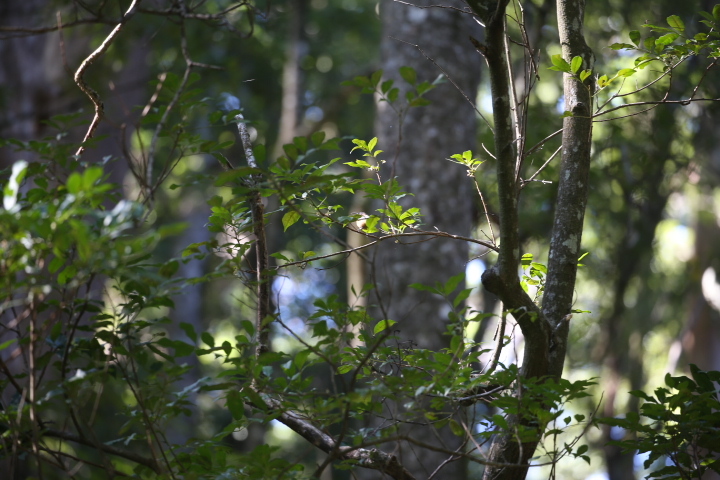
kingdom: Animalia
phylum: Chordata
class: Aves
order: Passeriformes
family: Meliphagidae
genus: Acanthorhynchus
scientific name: Acanthorhynchus tenuirostris
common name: Eastern spinebill
